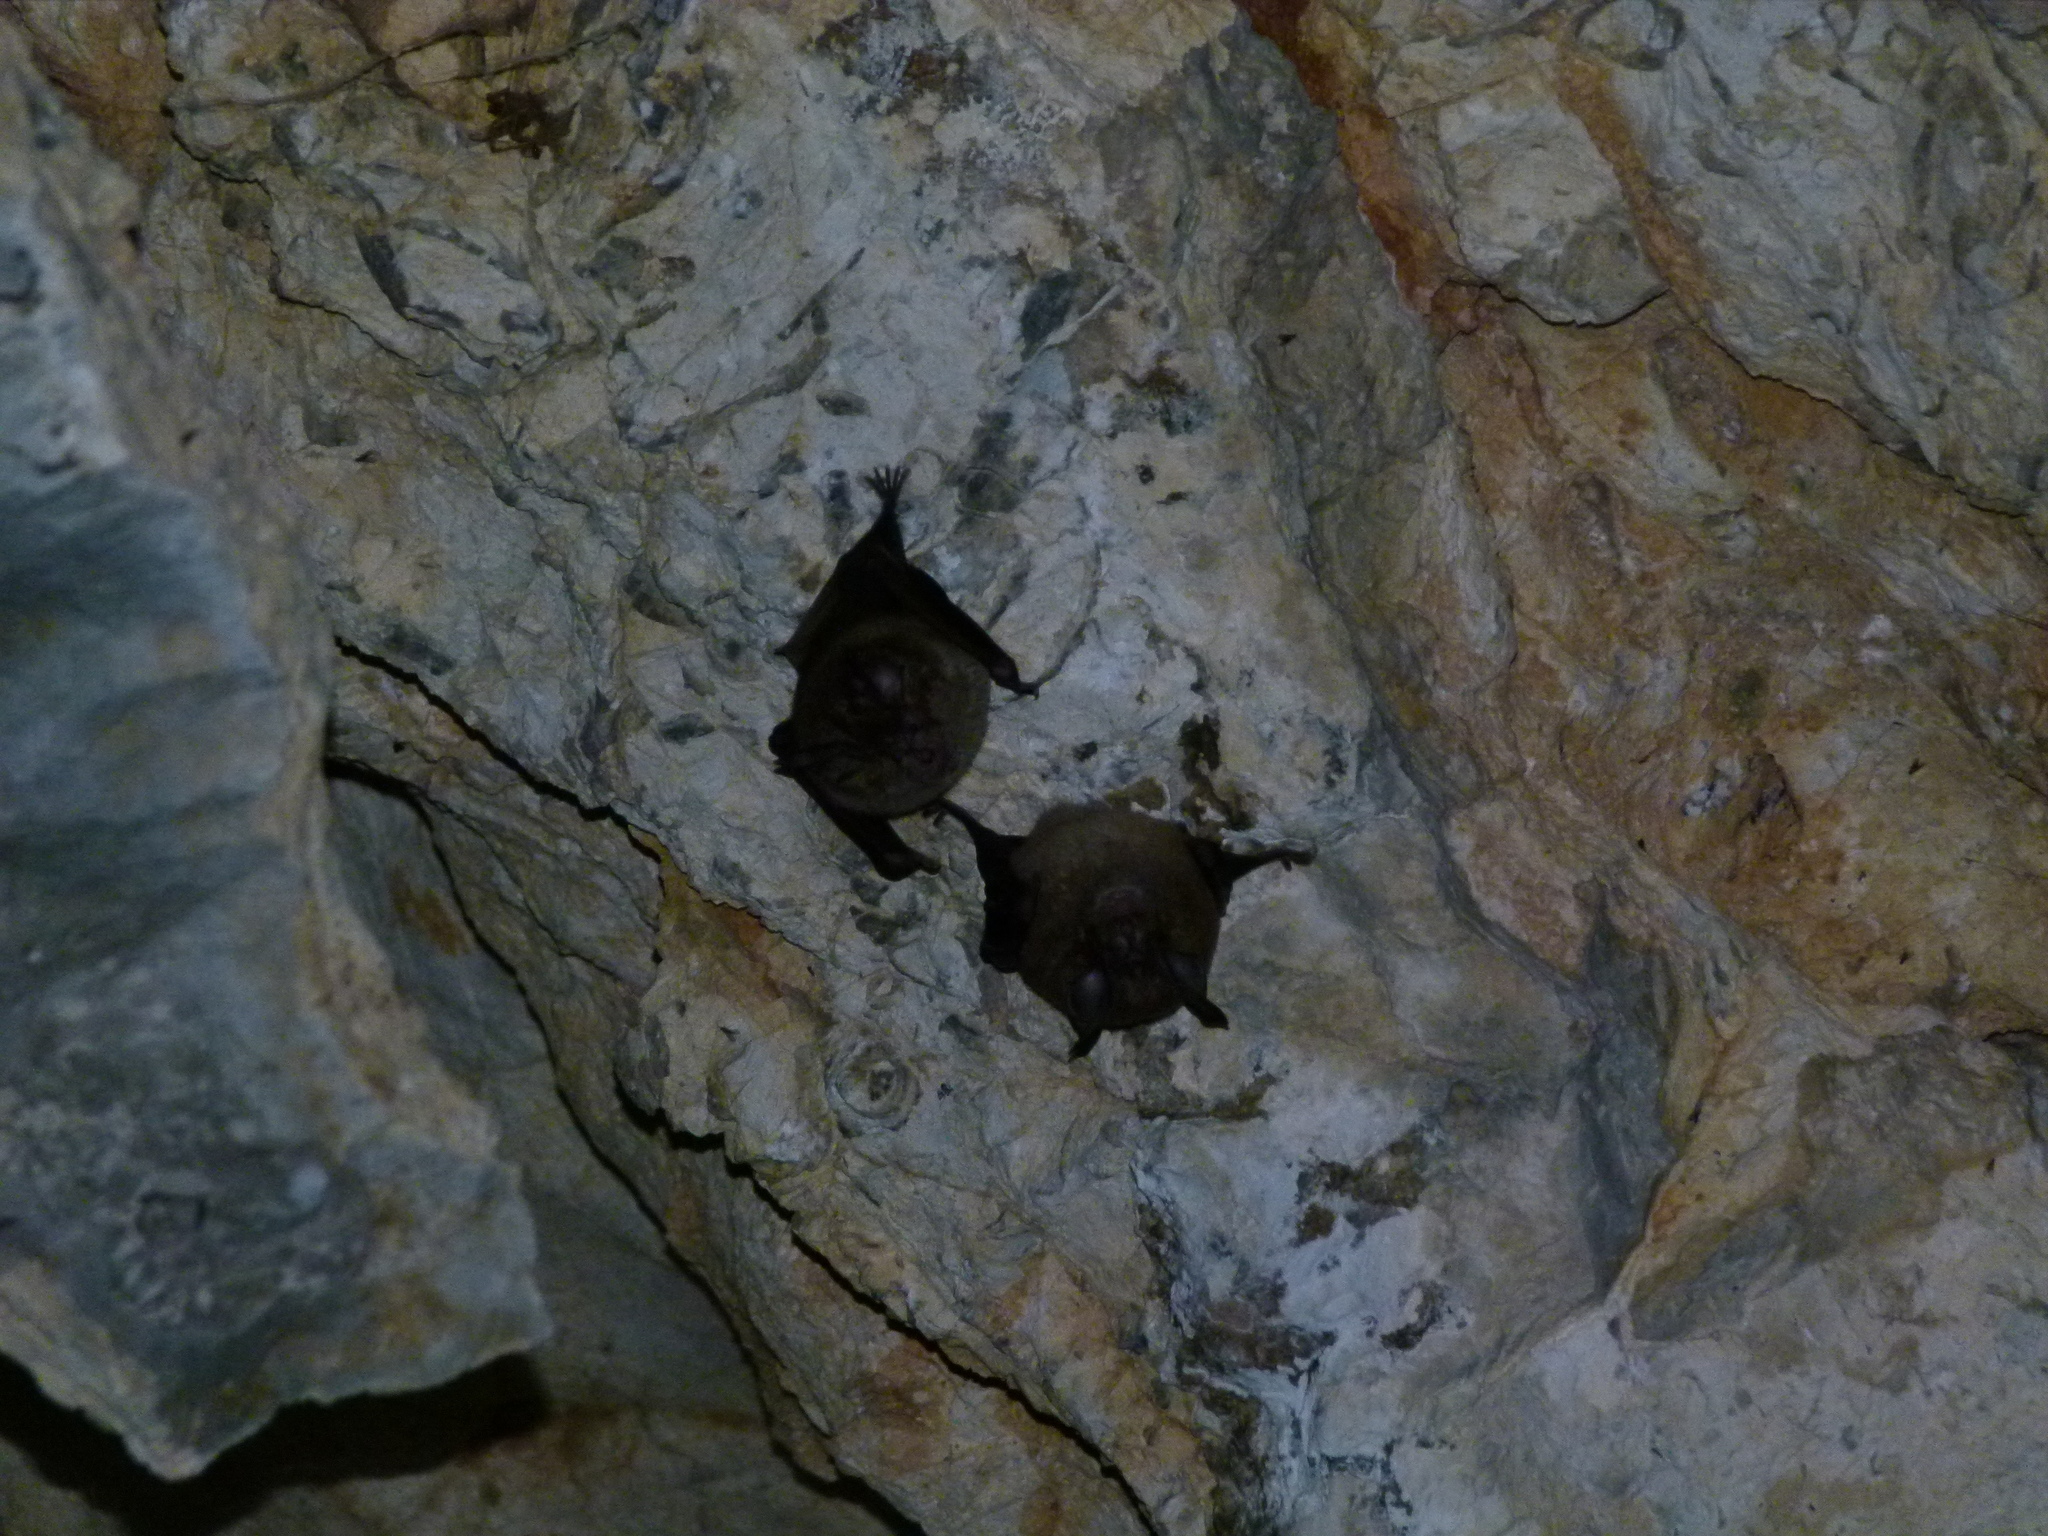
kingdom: Animalia
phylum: Chordata
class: Mammalia
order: Chiroptera
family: Rhinolophidae
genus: Rhinolophus
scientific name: Rhinolophus ferrumequinum
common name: Greater horseshoe bat
